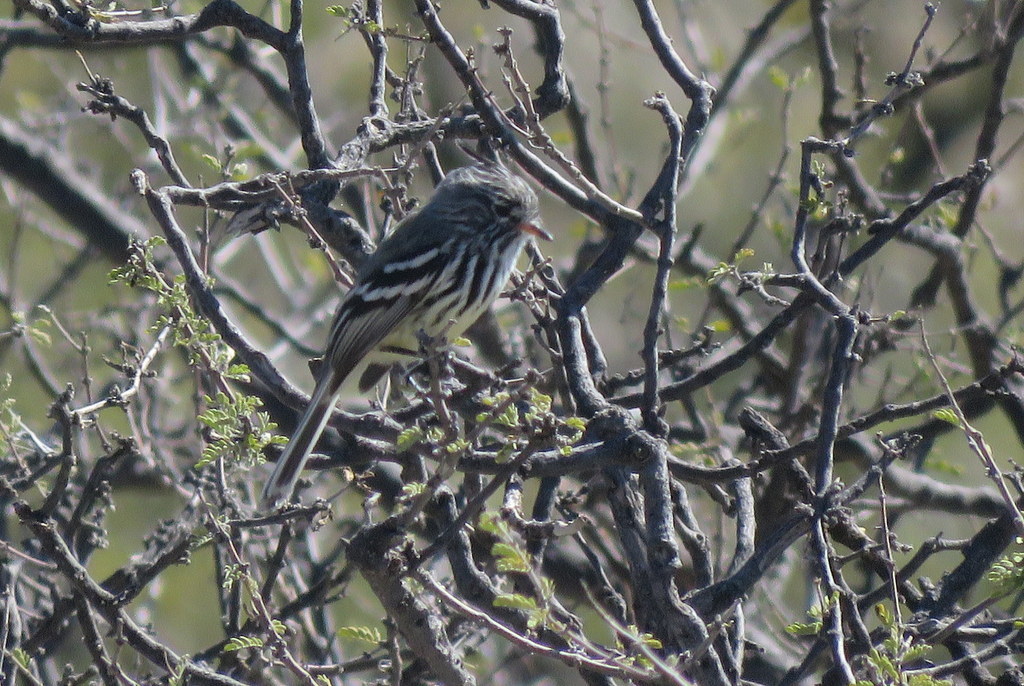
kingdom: Animalia
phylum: Chordata
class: Aves
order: Passeriformes
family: Tyrannidae
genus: Anairetes
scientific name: Anairetes flavirostris
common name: Yellow-billed tit-tyrant
